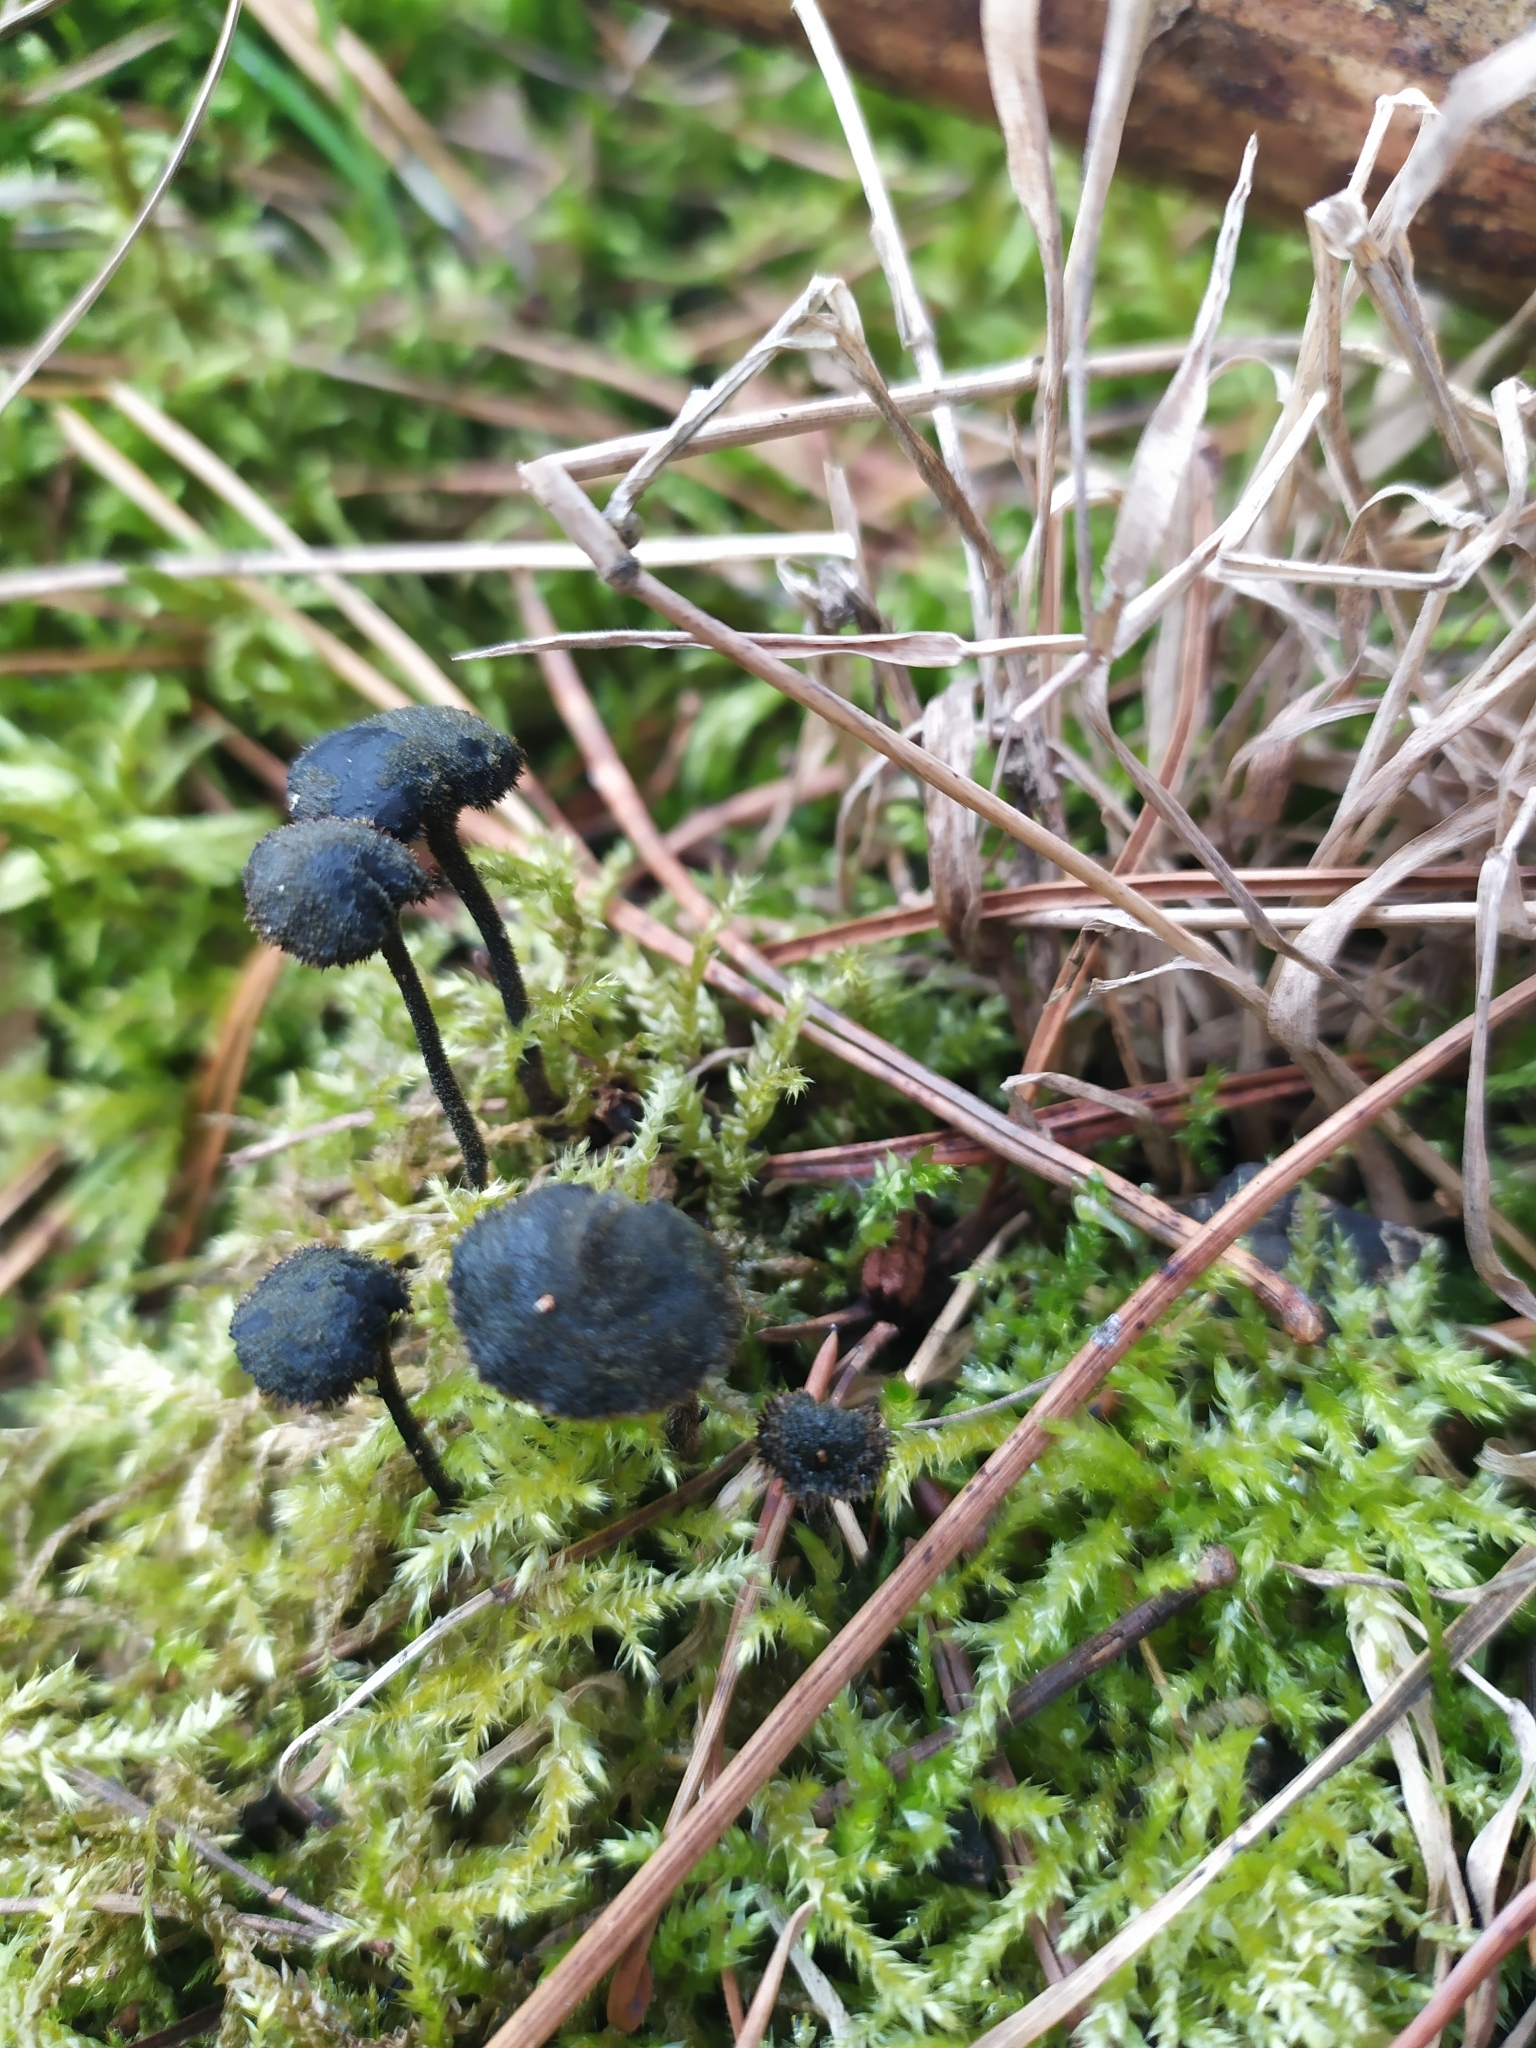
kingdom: Fungi
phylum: Basidiomycota
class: Agaricomycetes
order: Russulales
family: Auriscalpiaceae
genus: Auriscalpium
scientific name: Auriscalpium vulgare
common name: Earpick fungus
